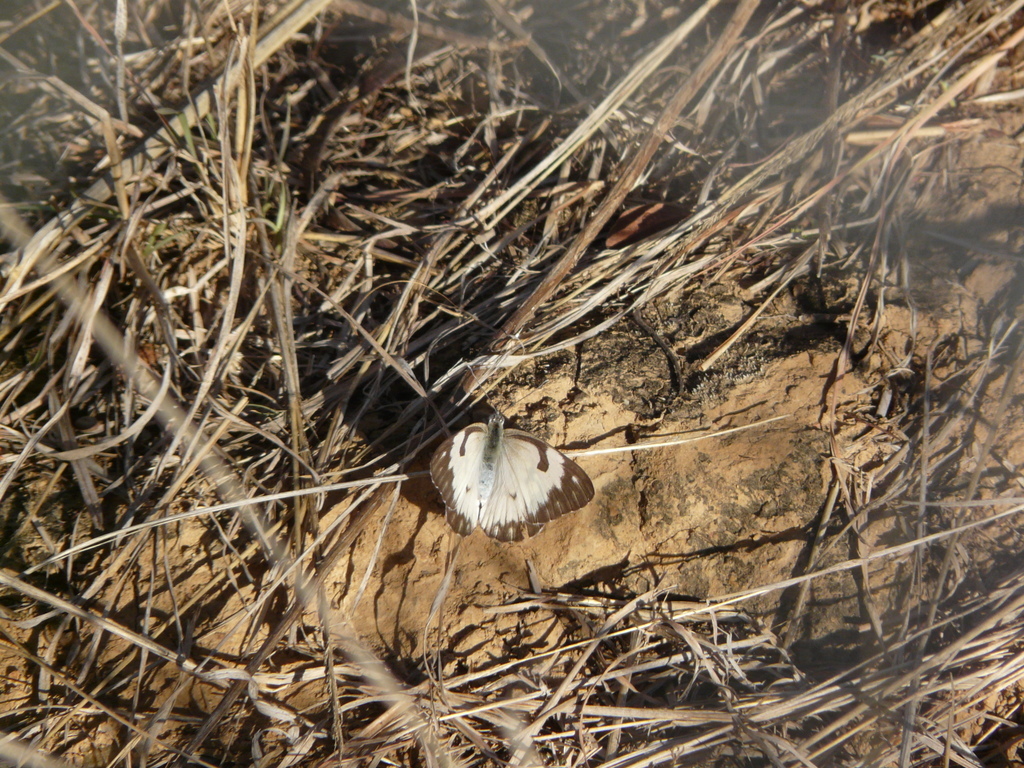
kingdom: Animalia
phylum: Arthropoda
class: Insecta
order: Lepidoptera
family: Pieridae
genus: Belenois
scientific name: Belenois aurota
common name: Brown-veined white
